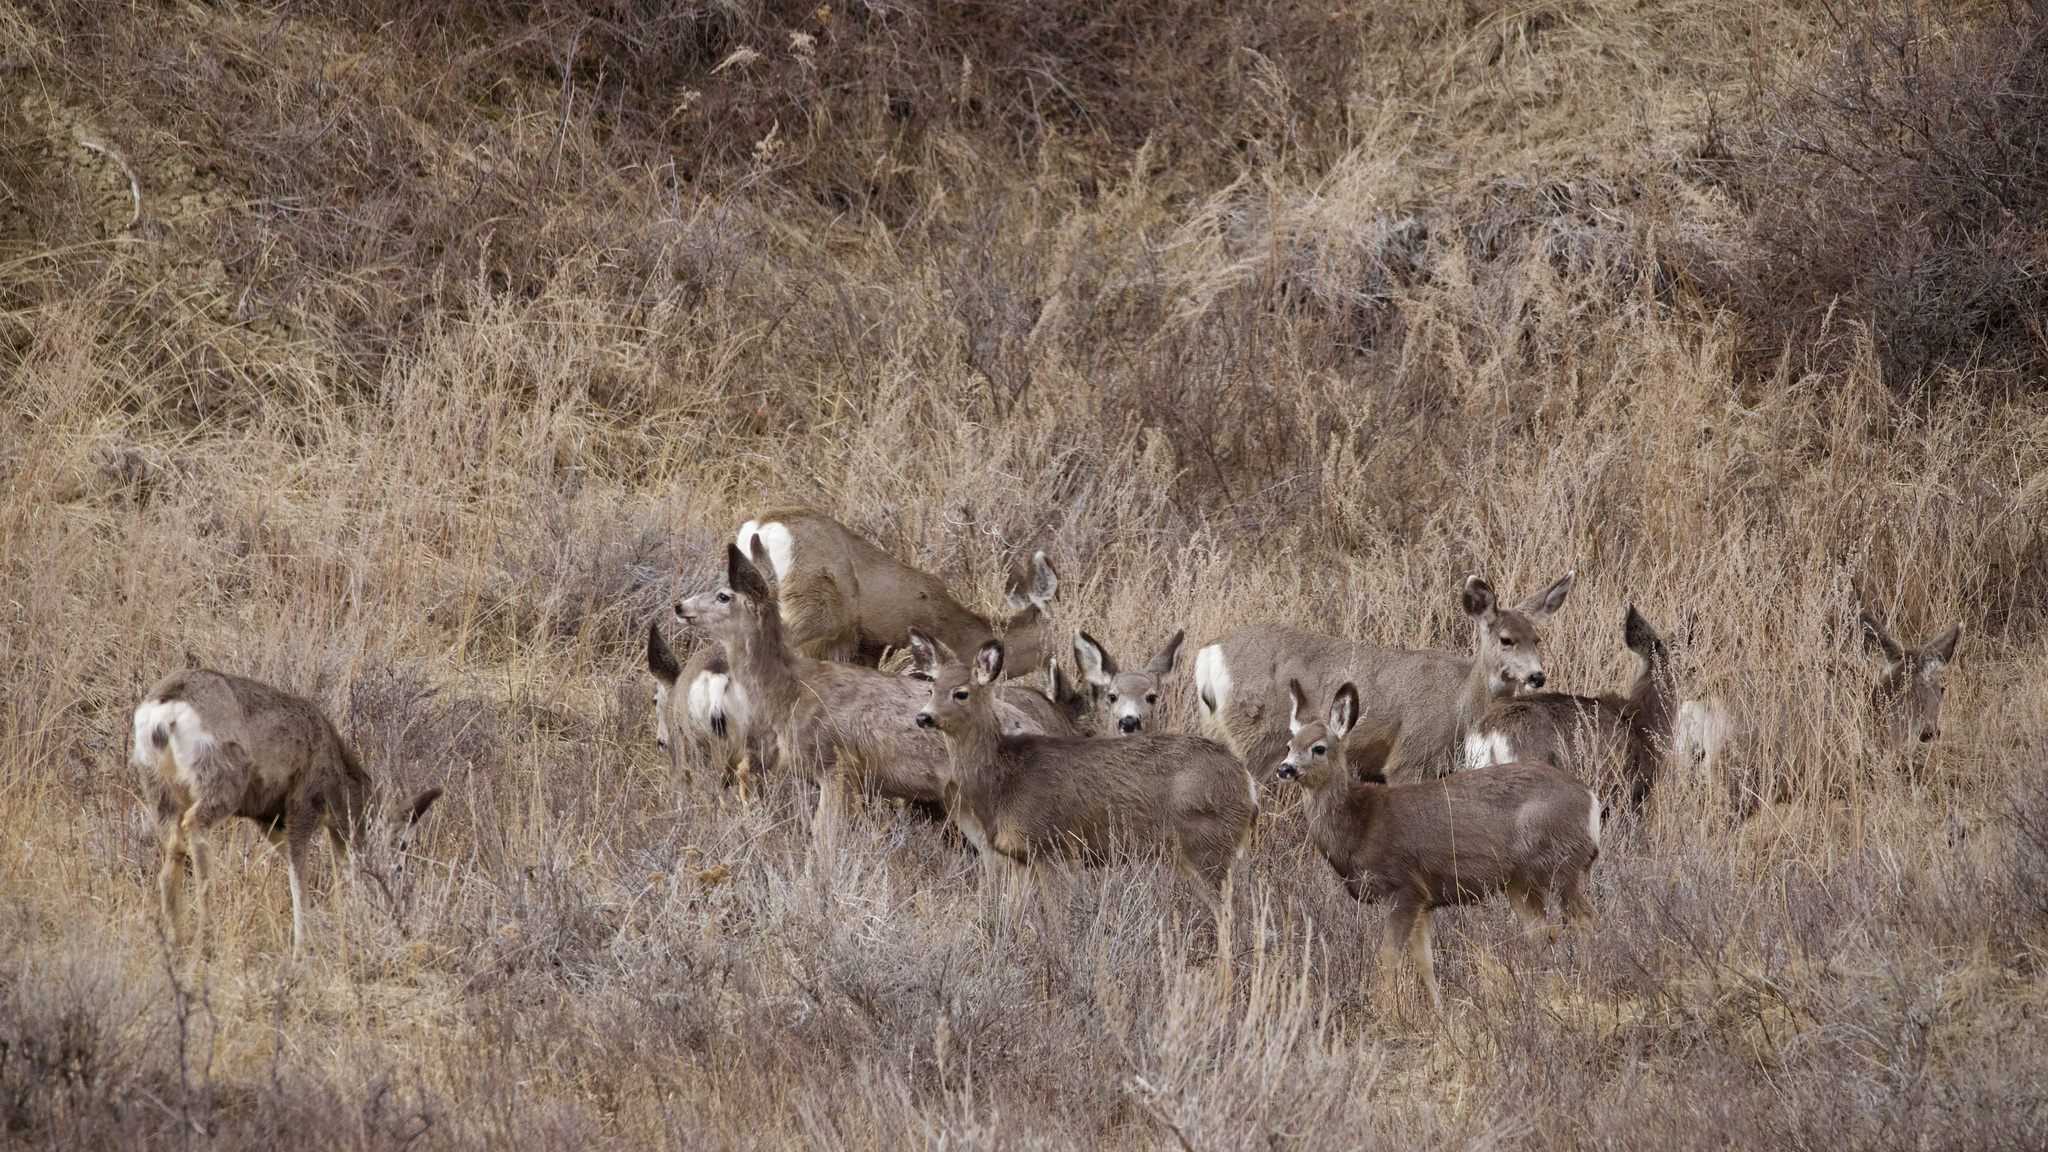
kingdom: Animalia
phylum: Chordata
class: Mammalia
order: Artiodactyla
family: Cervidae
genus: Odocoileus
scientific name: Odocoileus hemionus
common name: Mule deer
